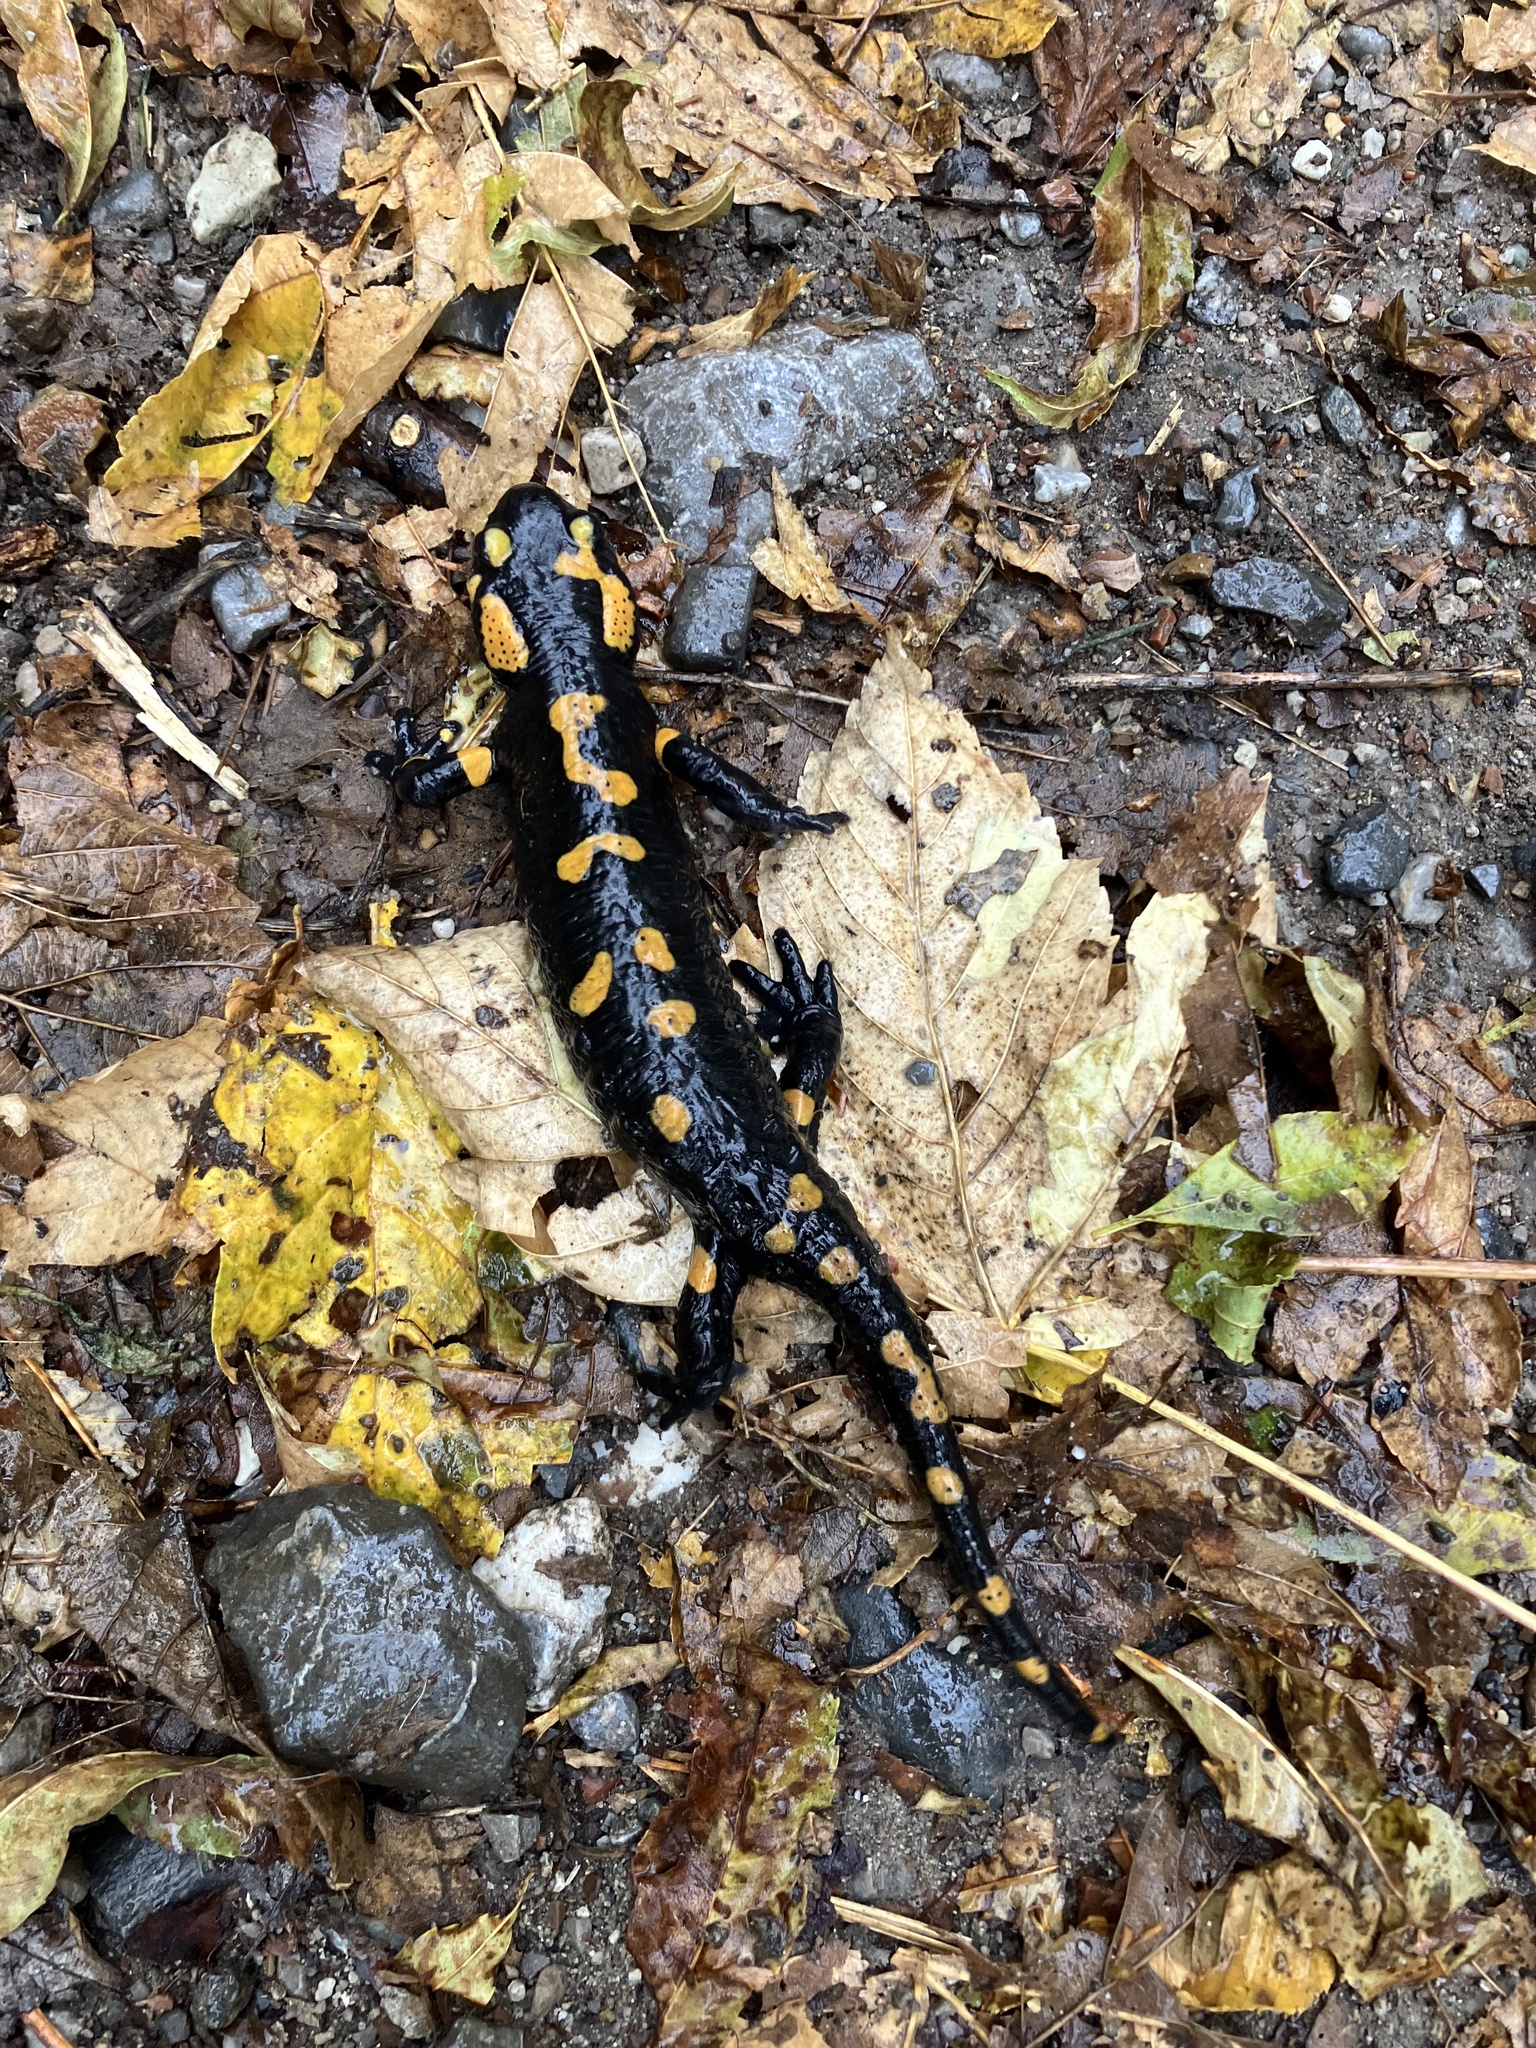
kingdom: Animalia
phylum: Chordata
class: Amphibia
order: Caudata
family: Salamandridae
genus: Salamandra
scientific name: Salamandra salamandra
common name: Fire salamander
